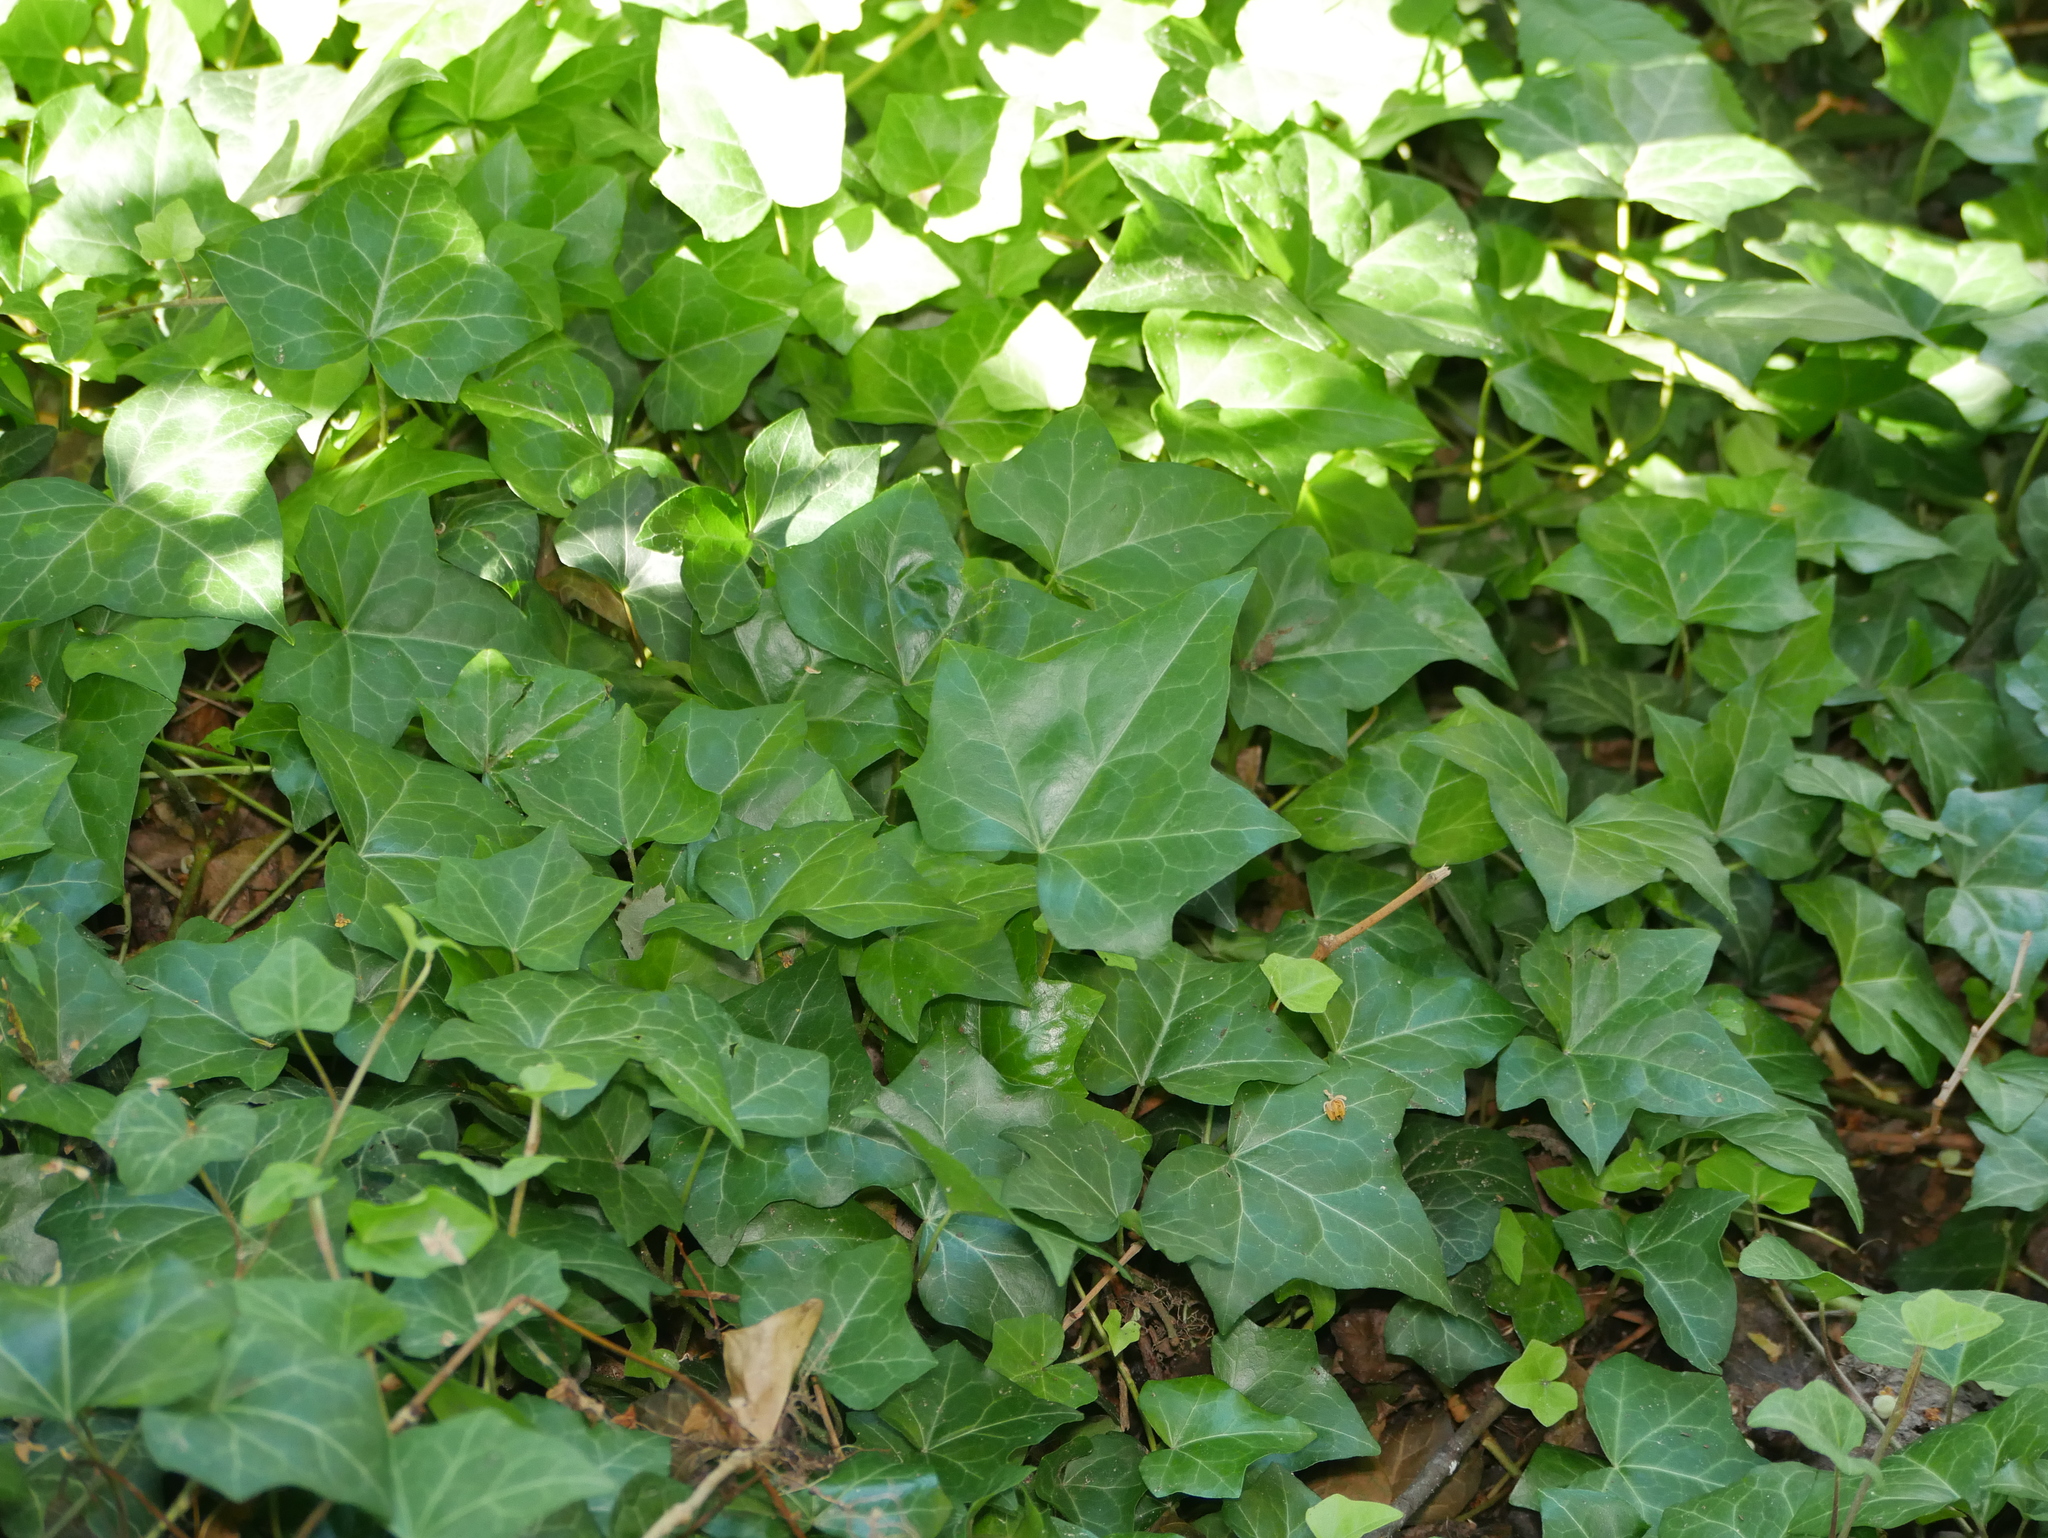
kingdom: Plantae
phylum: Tracheophyta
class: Magnoliopsida
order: Apiales
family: Araliaceae
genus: Hedera
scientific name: Hedera helix
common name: Ivy
